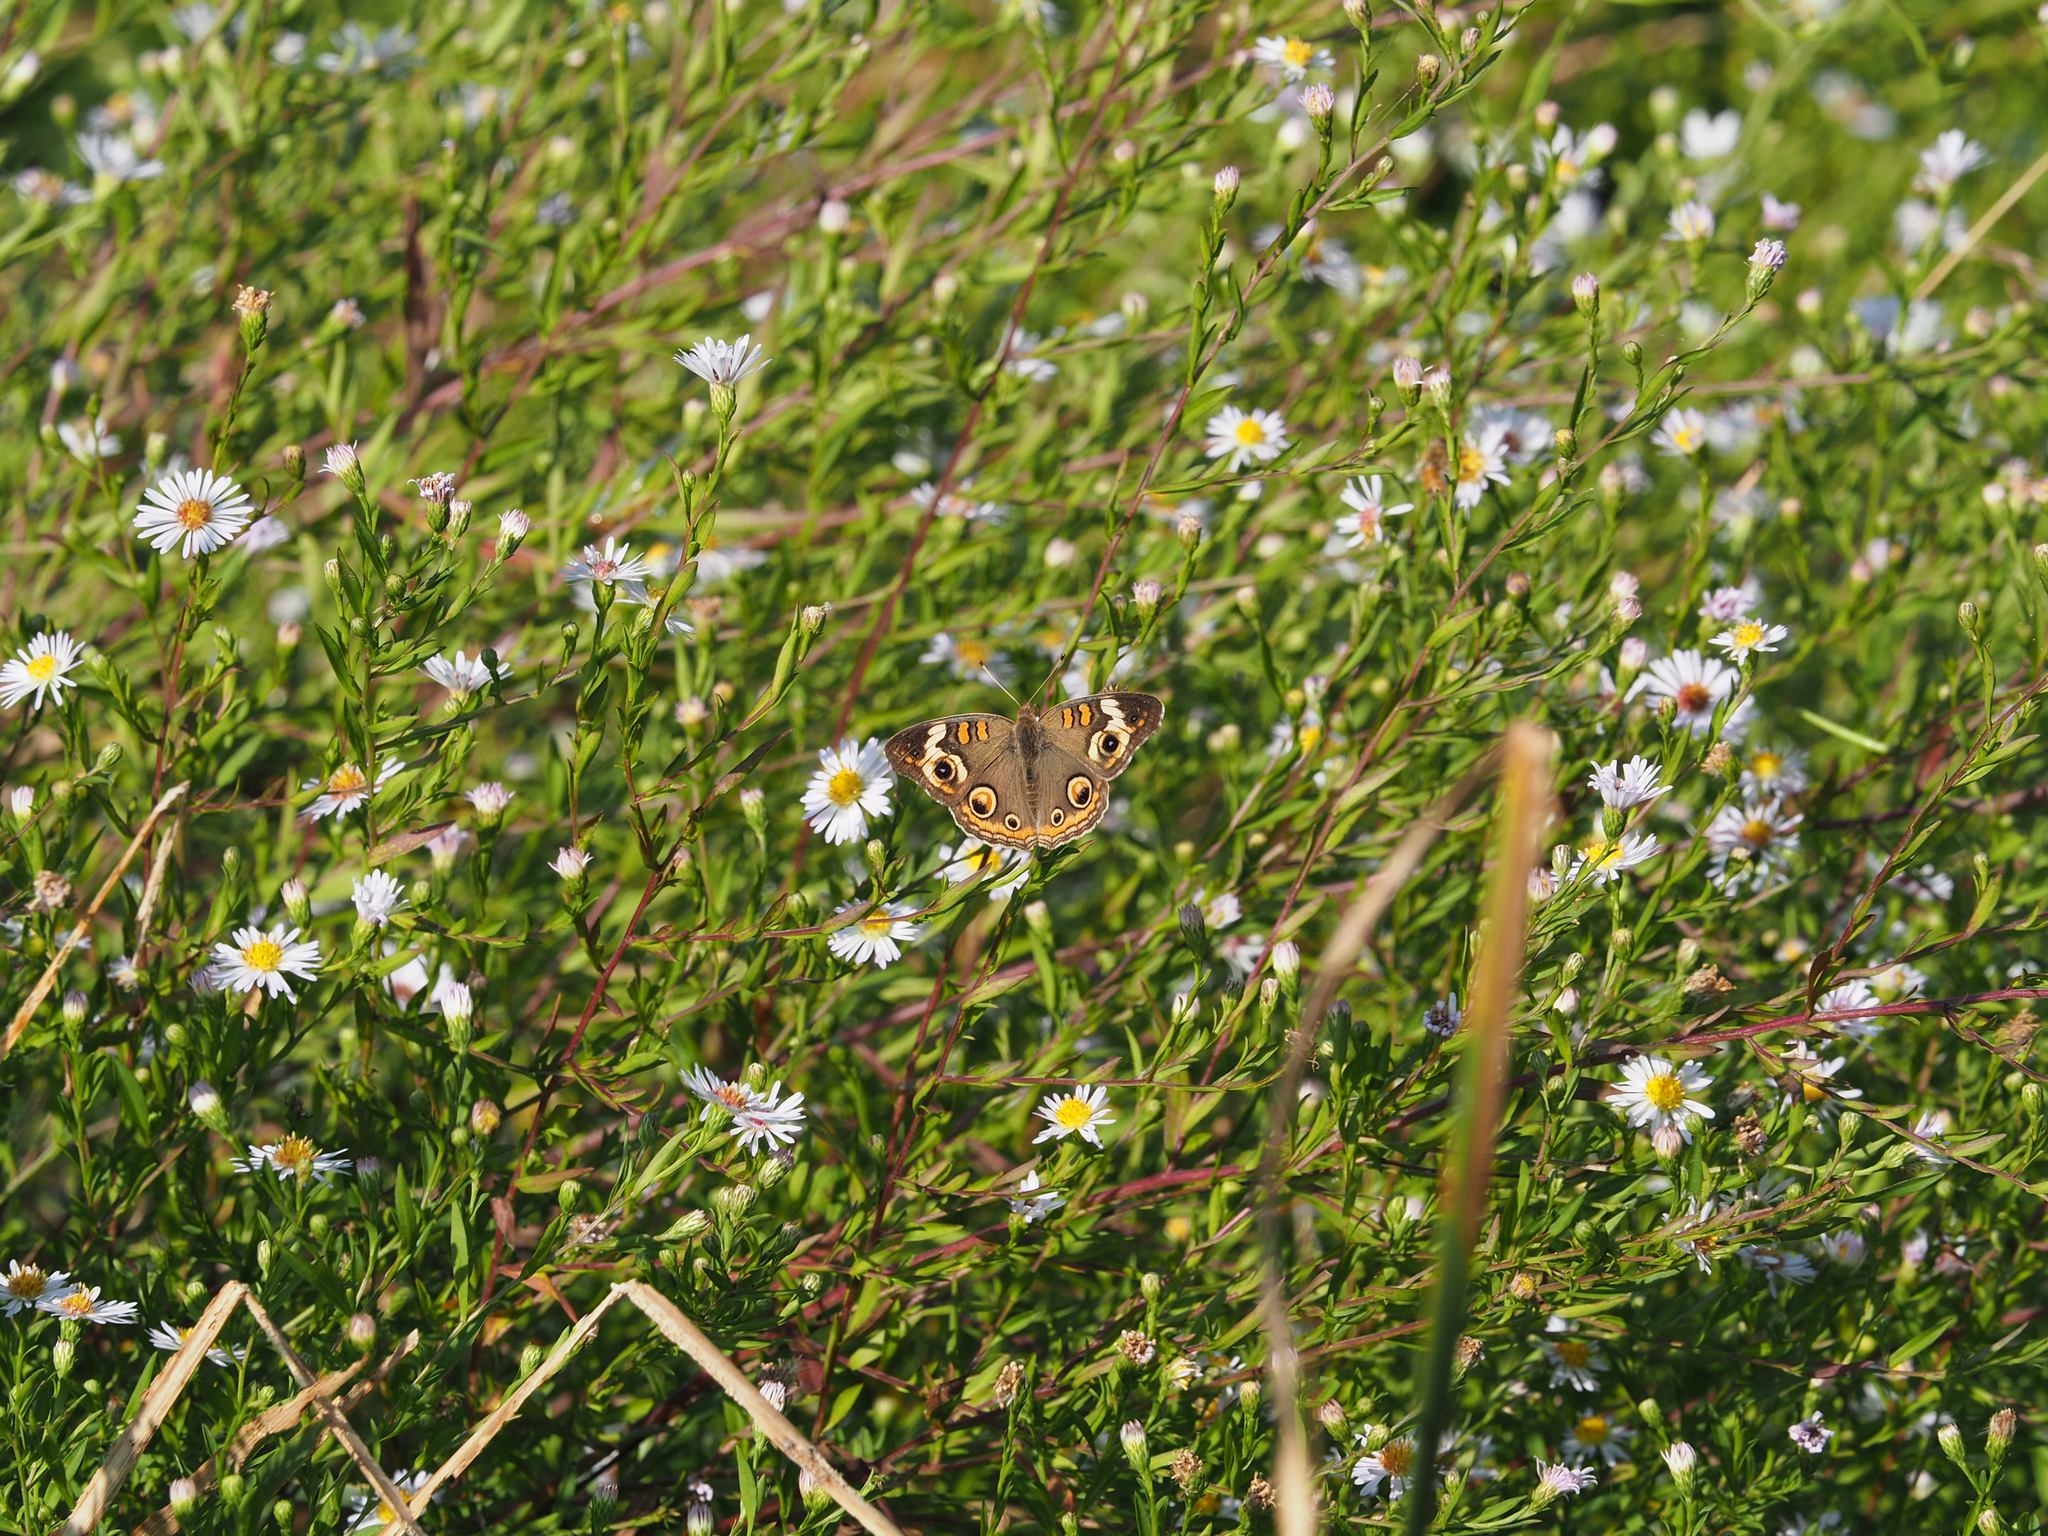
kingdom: Animalia
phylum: Arthropoda
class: Insecta
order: Lepidoptera
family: Nymphalidae
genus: Junonia
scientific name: Junonia coenia
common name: Common buckeye
